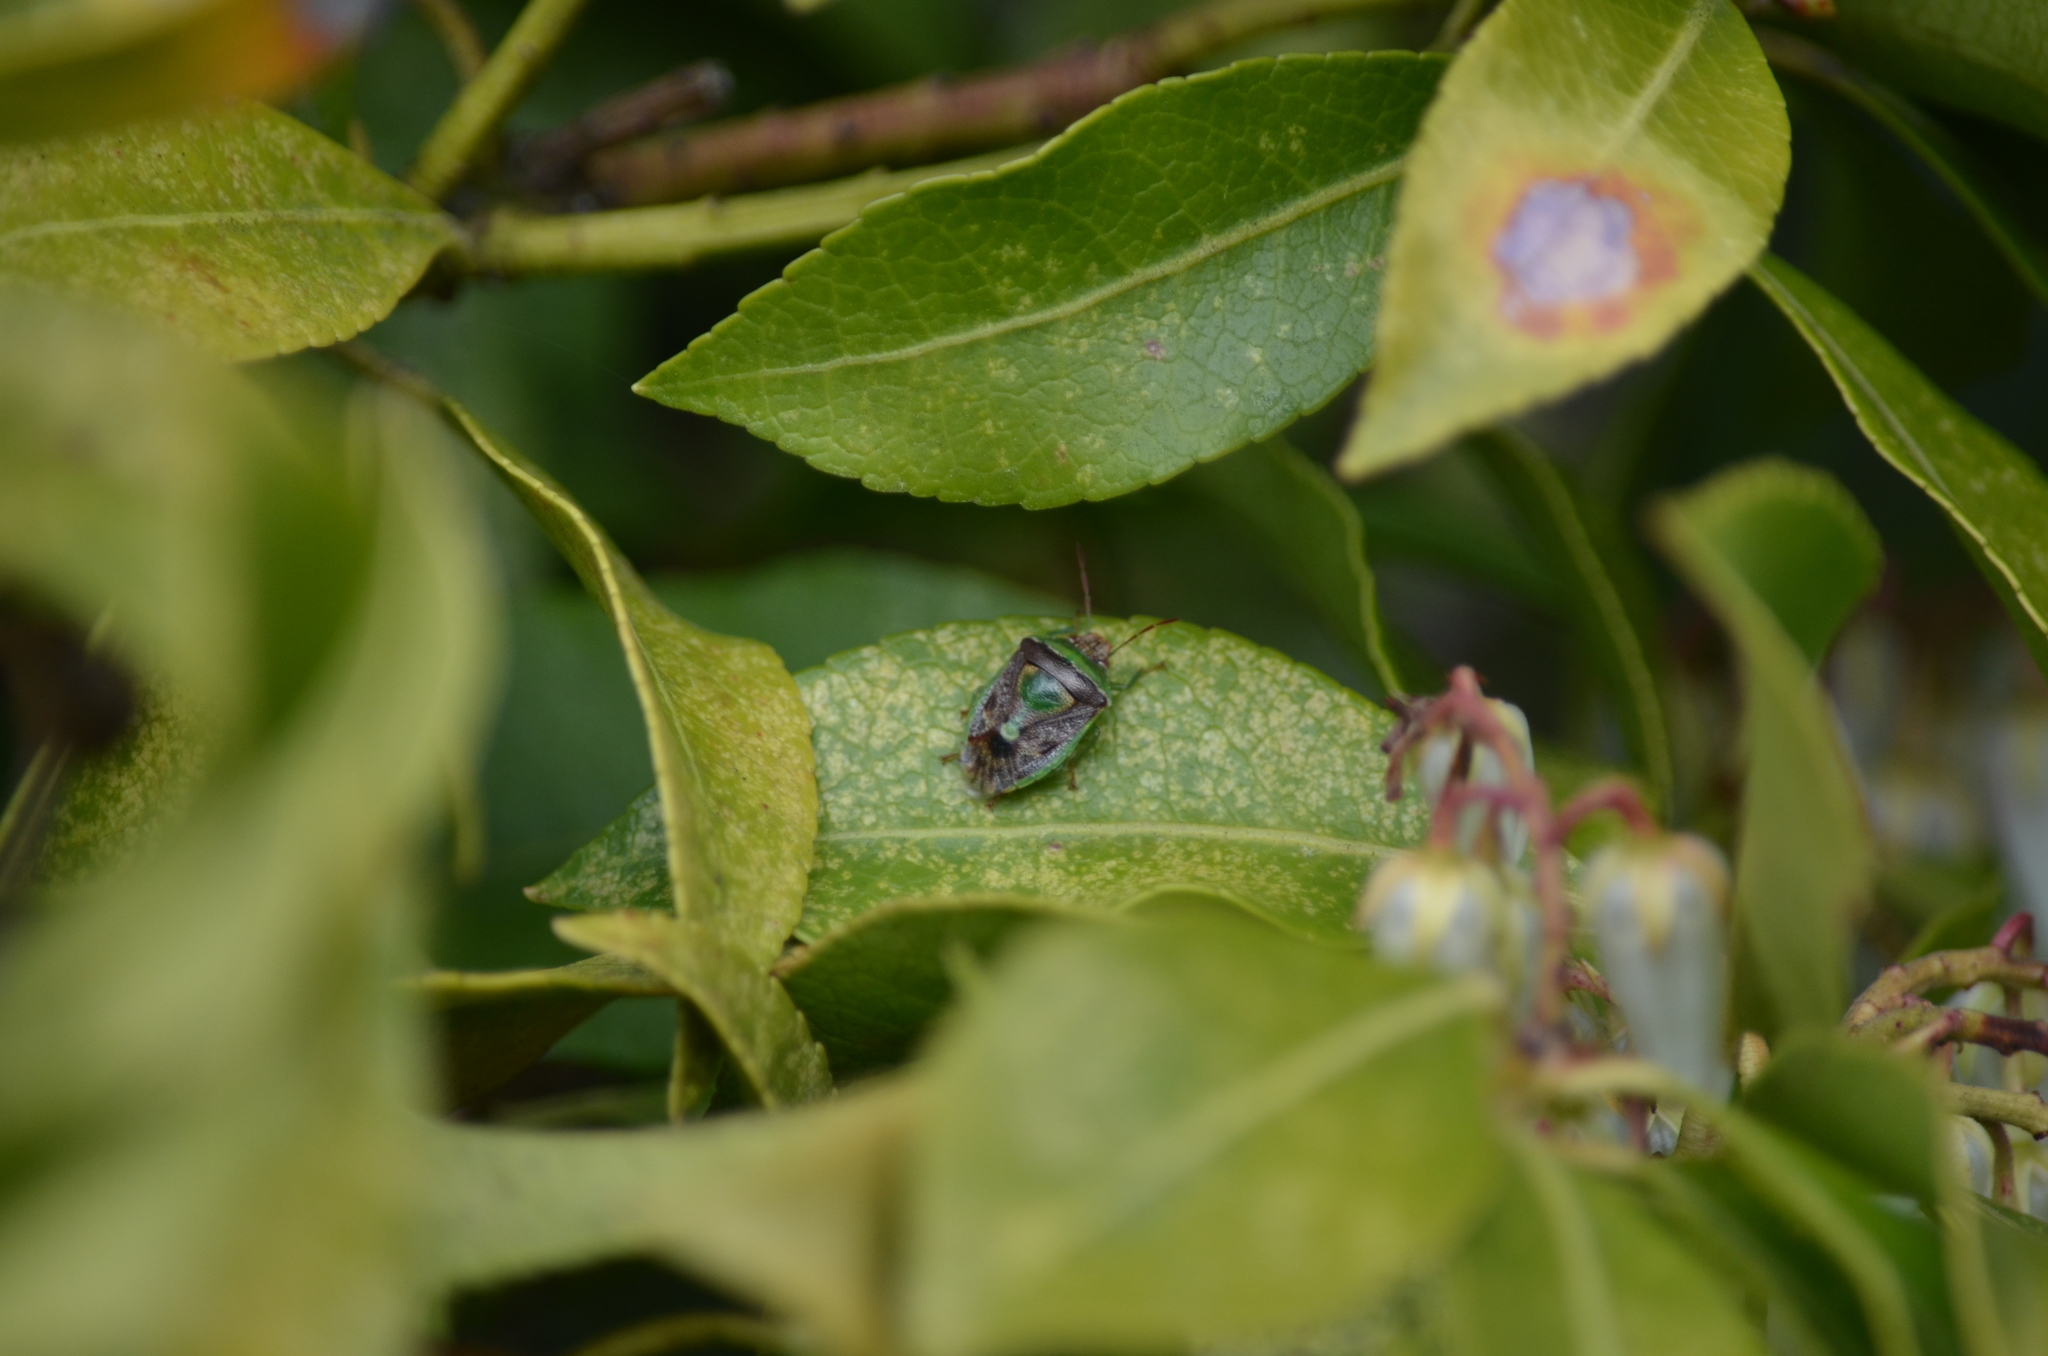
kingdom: Animalia
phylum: Arthropoda
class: Insecta
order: Hemiptera
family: Pentatomidae
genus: Banasa
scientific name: Banasa dimidiata
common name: Green burgundy stink bug
